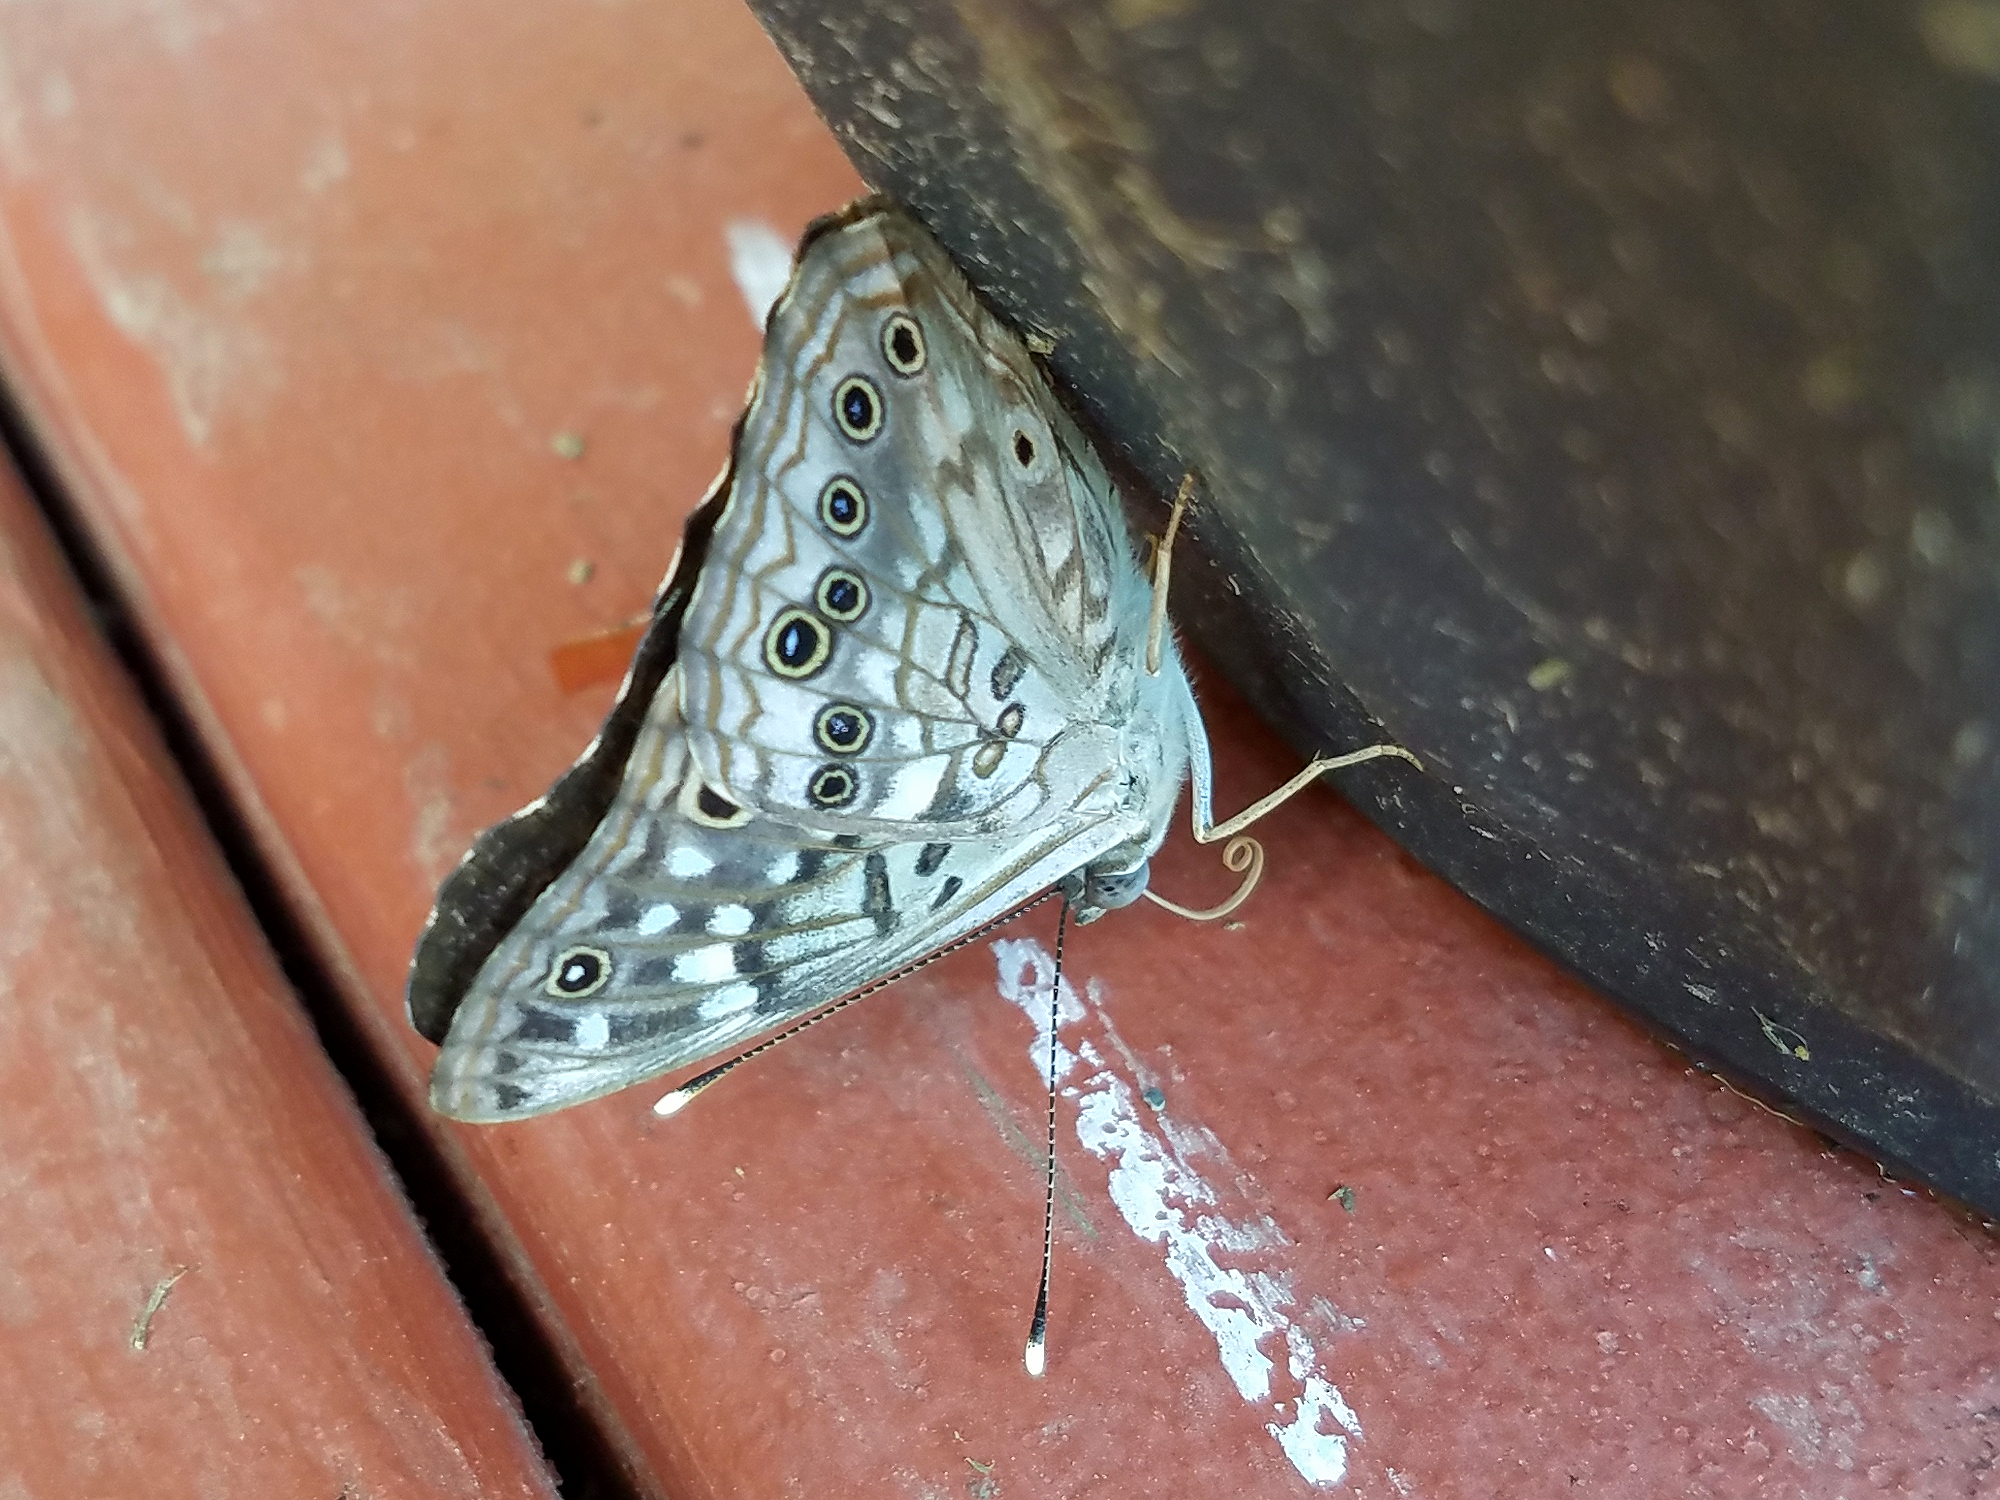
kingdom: Animalia
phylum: Arthropoda
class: Insecta
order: Lepidoptera
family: Nymphalidae
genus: Asterocampa
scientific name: Asterocampa celtis
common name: Hackberry emperor
